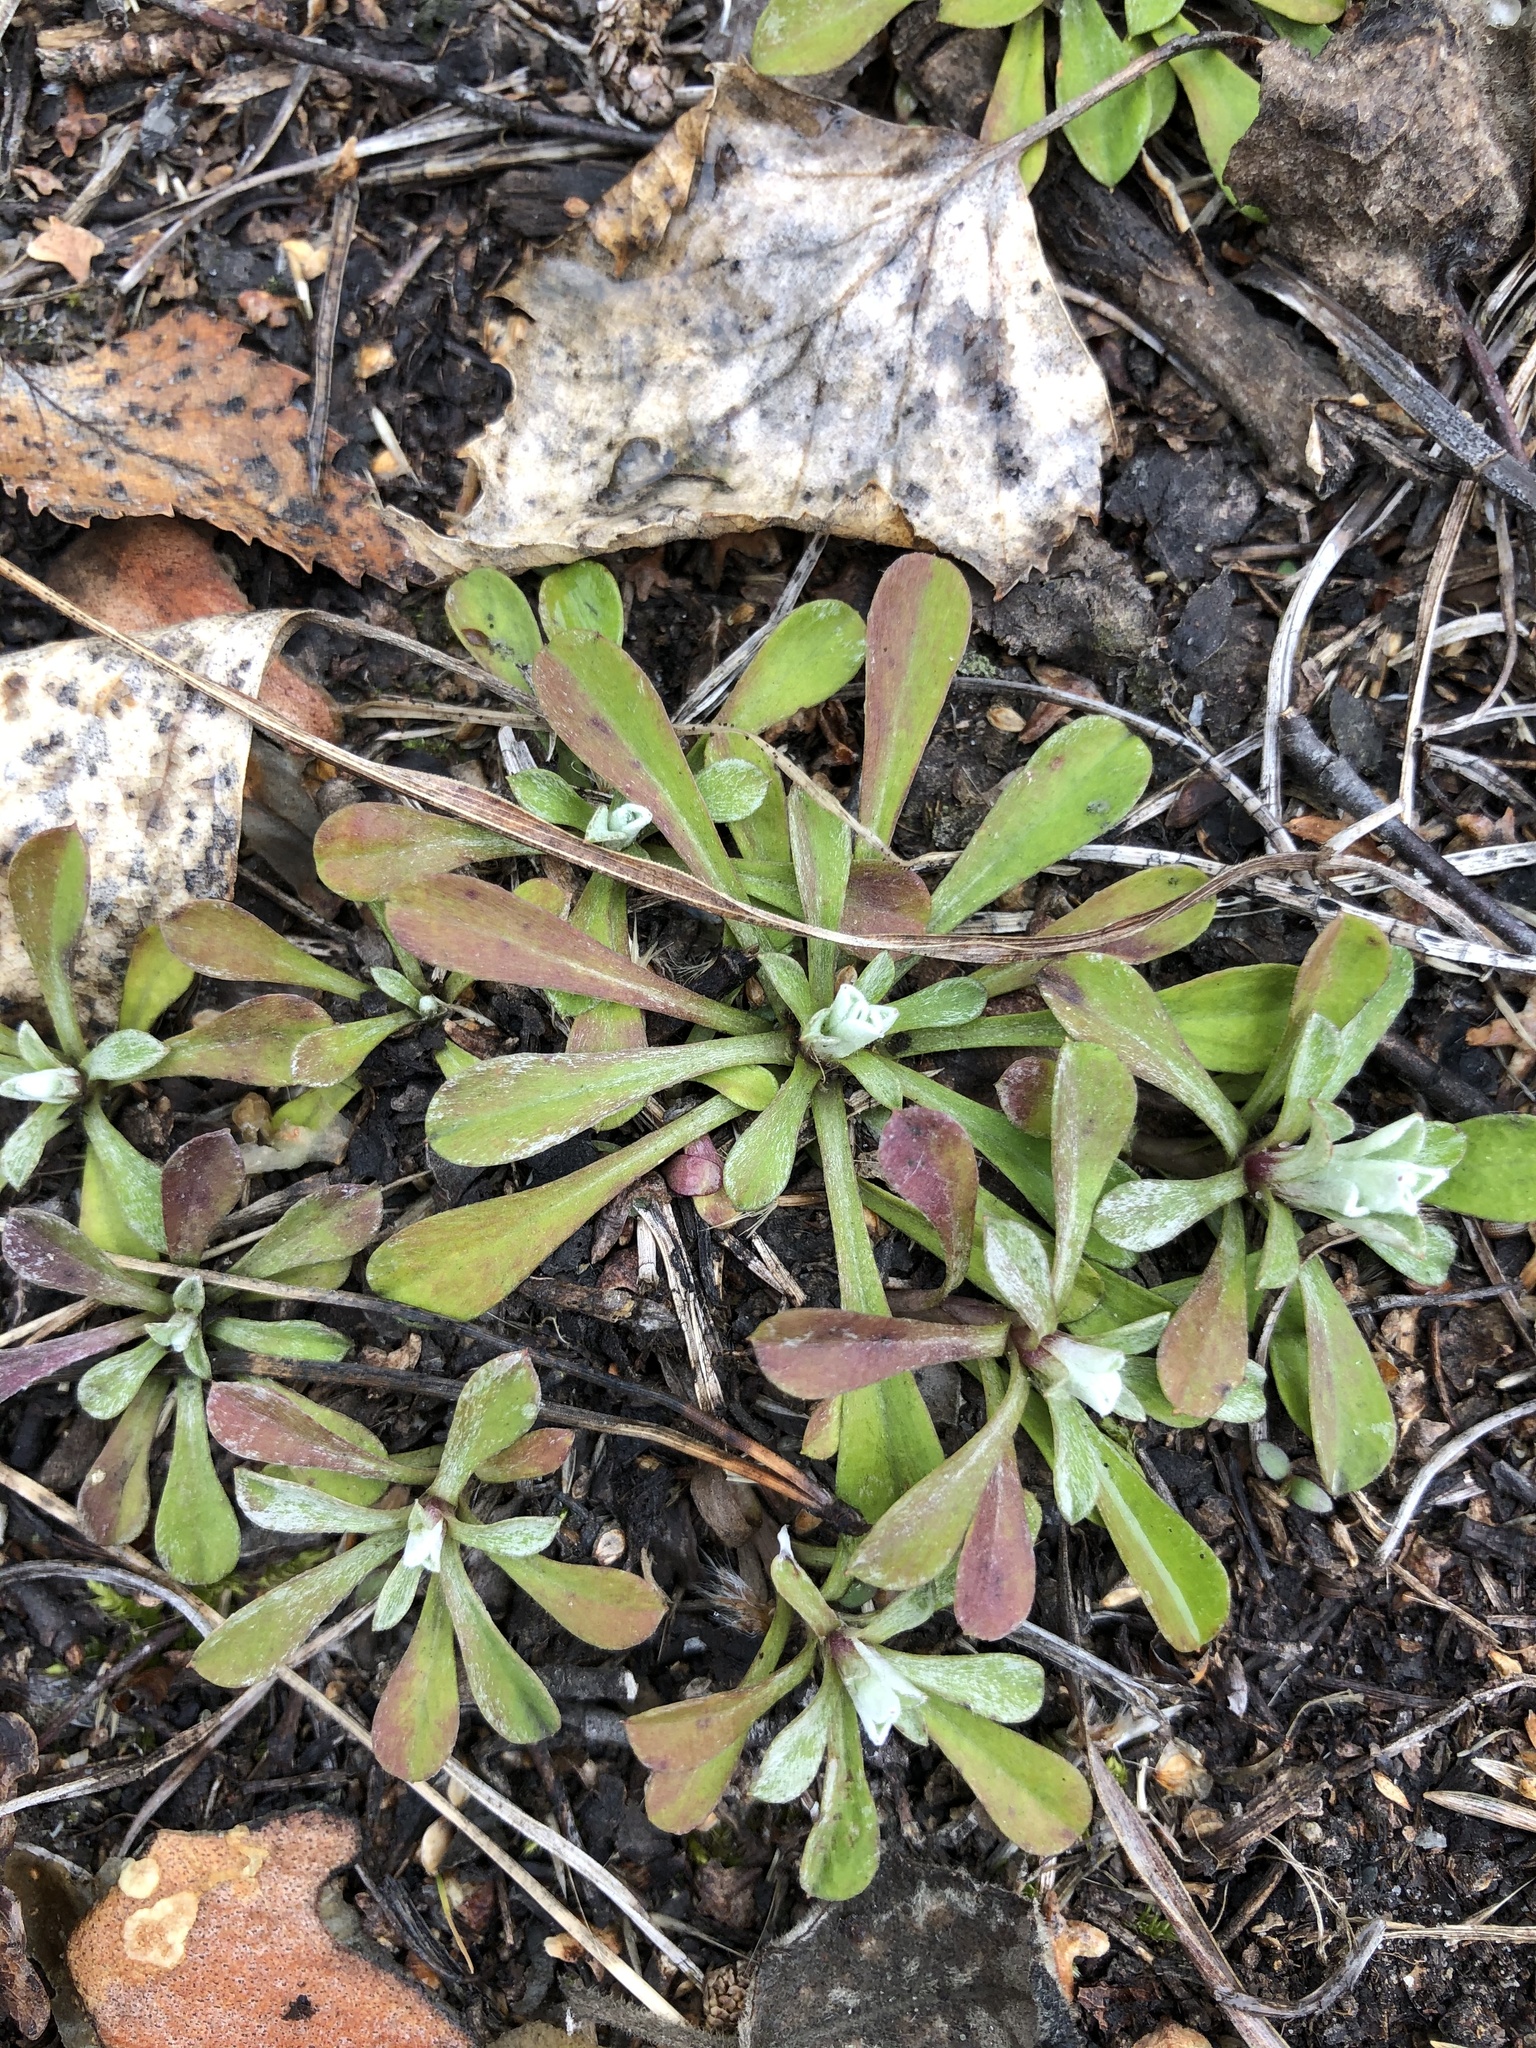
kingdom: Plantae
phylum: Tracheophyta
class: Magnoliopsida
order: Asterales
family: Asteraceae
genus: Antennaria
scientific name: Antennaria dioica
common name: Mountain everlasting
